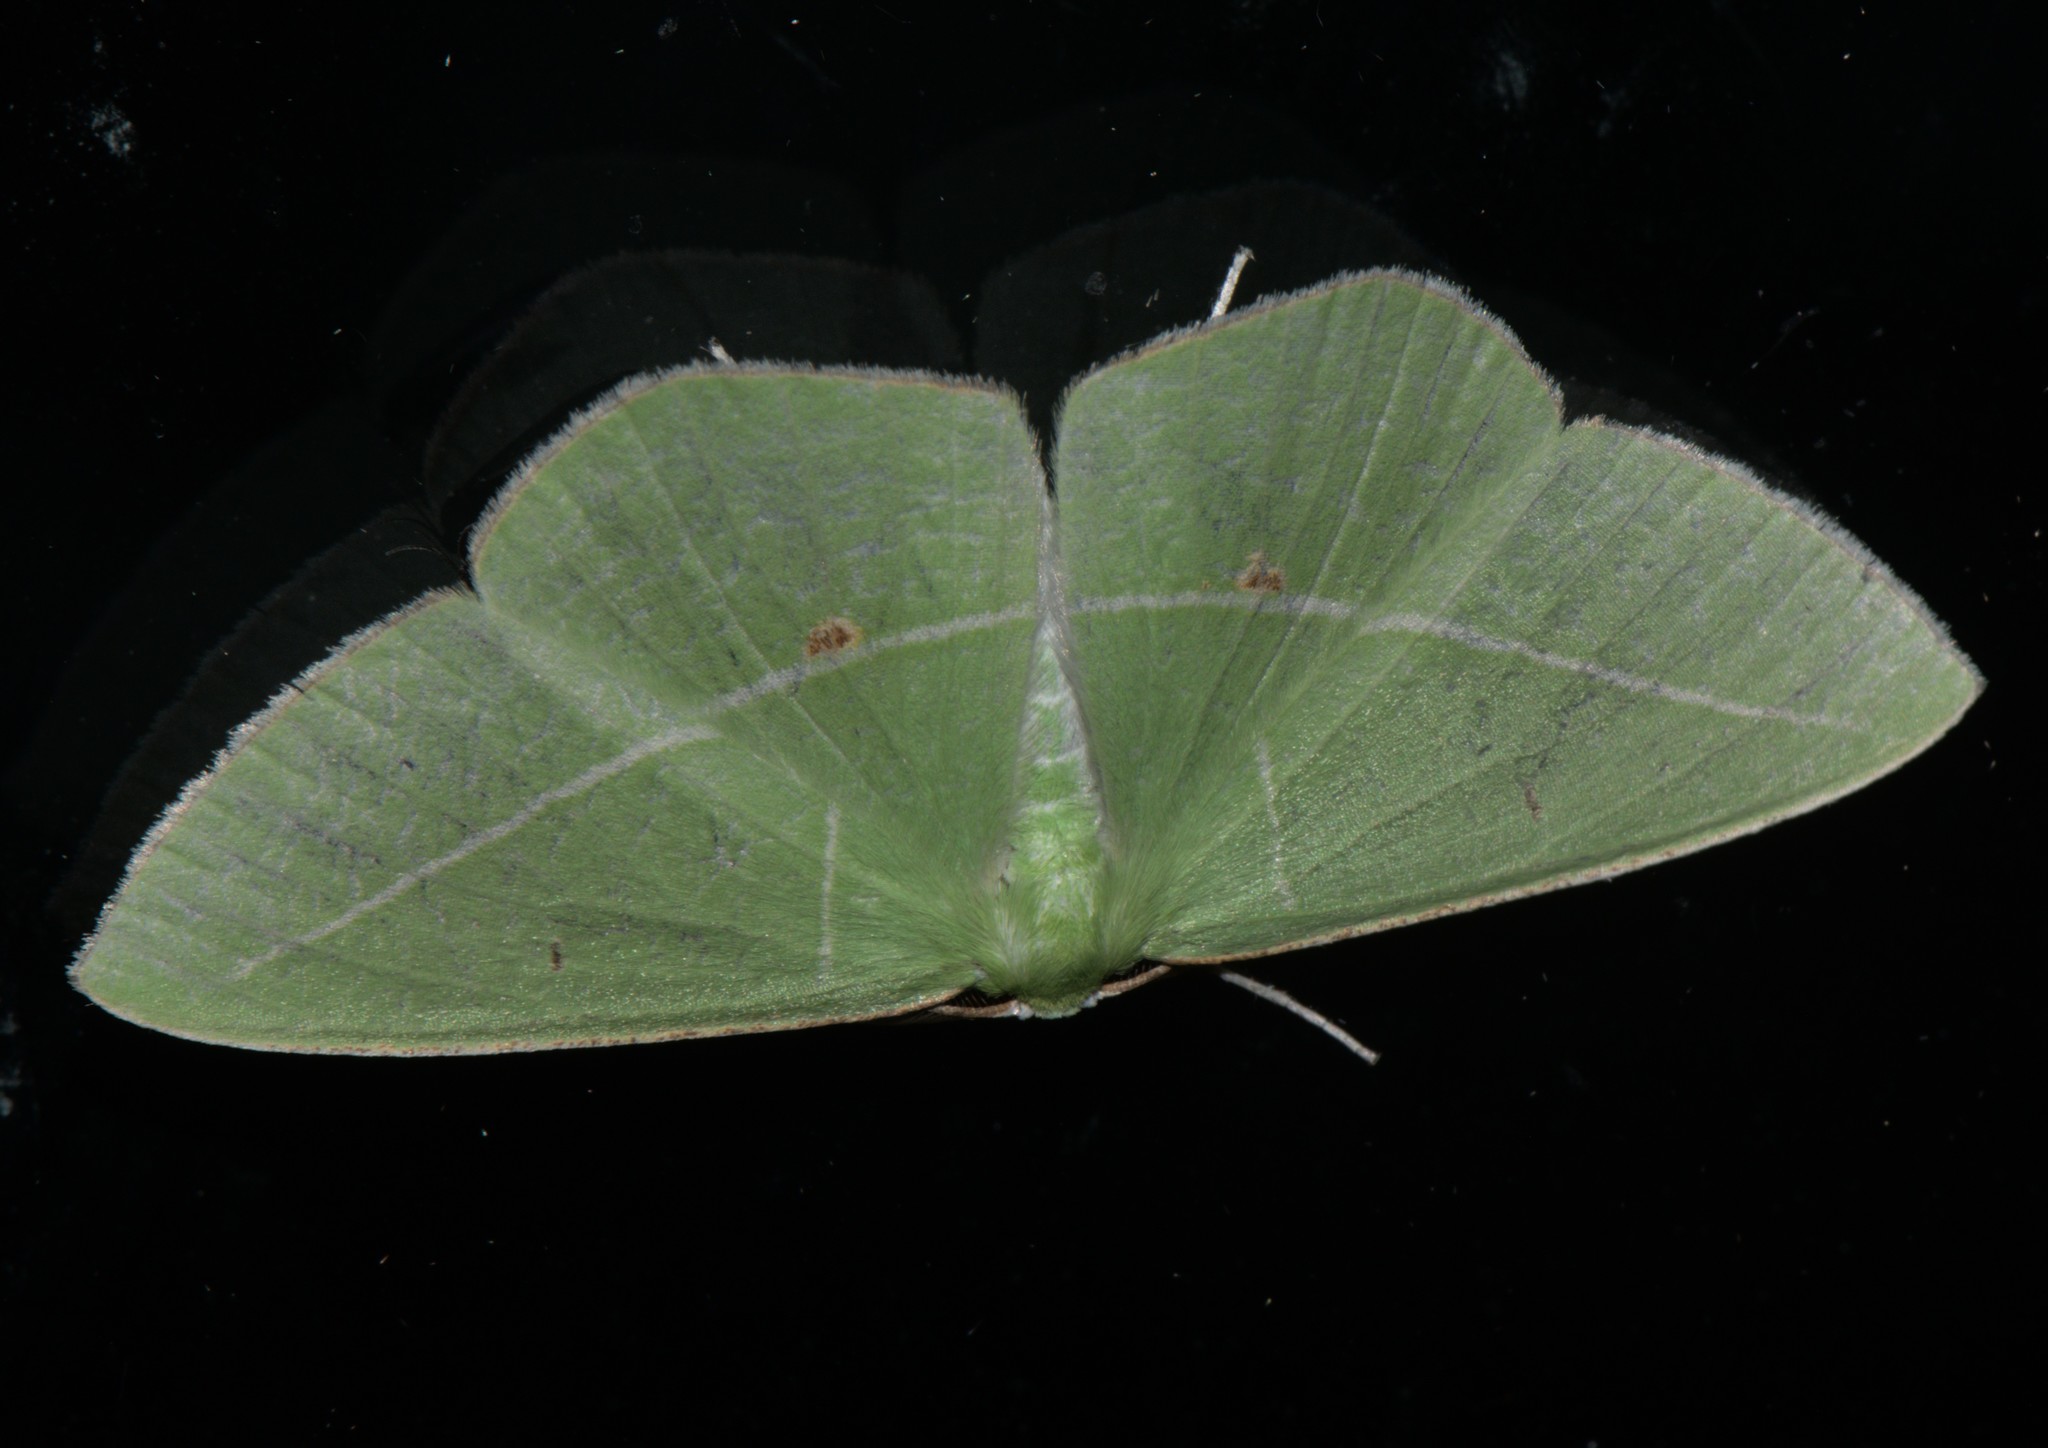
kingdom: Animalia
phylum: Arthropoda
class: Insecta
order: Lepidoptera
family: Geometridae
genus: Tanaoctenia
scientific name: Tanaoctenia haliaria
